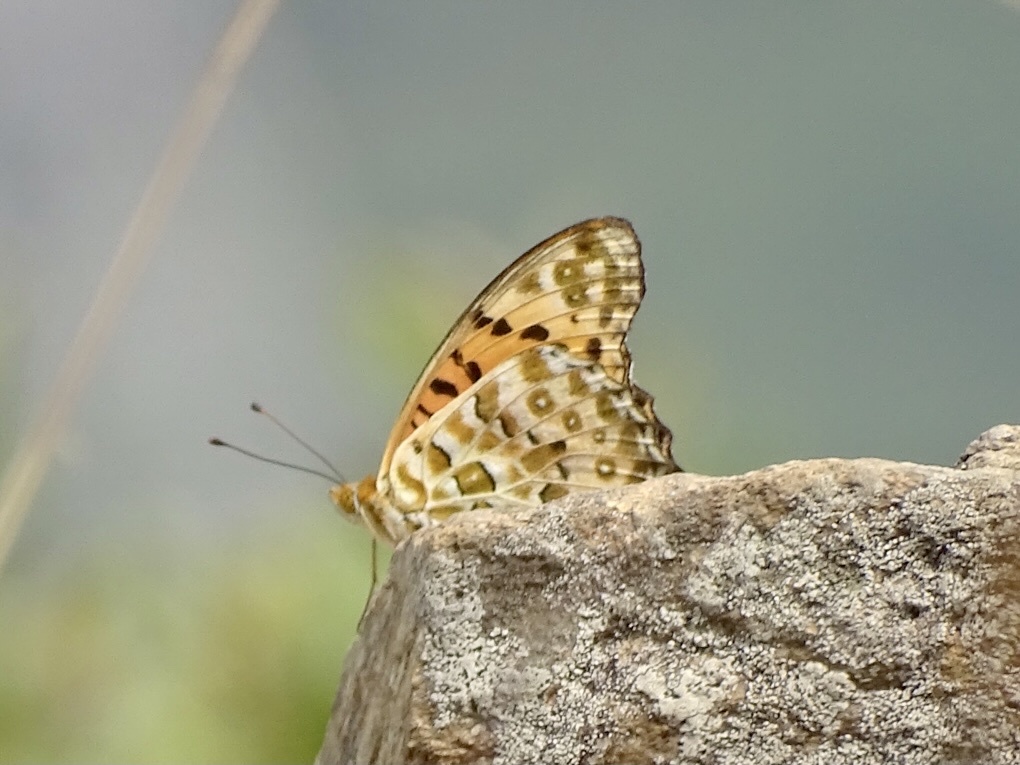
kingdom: Animalia
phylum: Arthropoda
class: Insecta
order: Lepidoptera
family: Nymphalidae
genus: Argynnis
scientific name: Argynnis hyperbius
